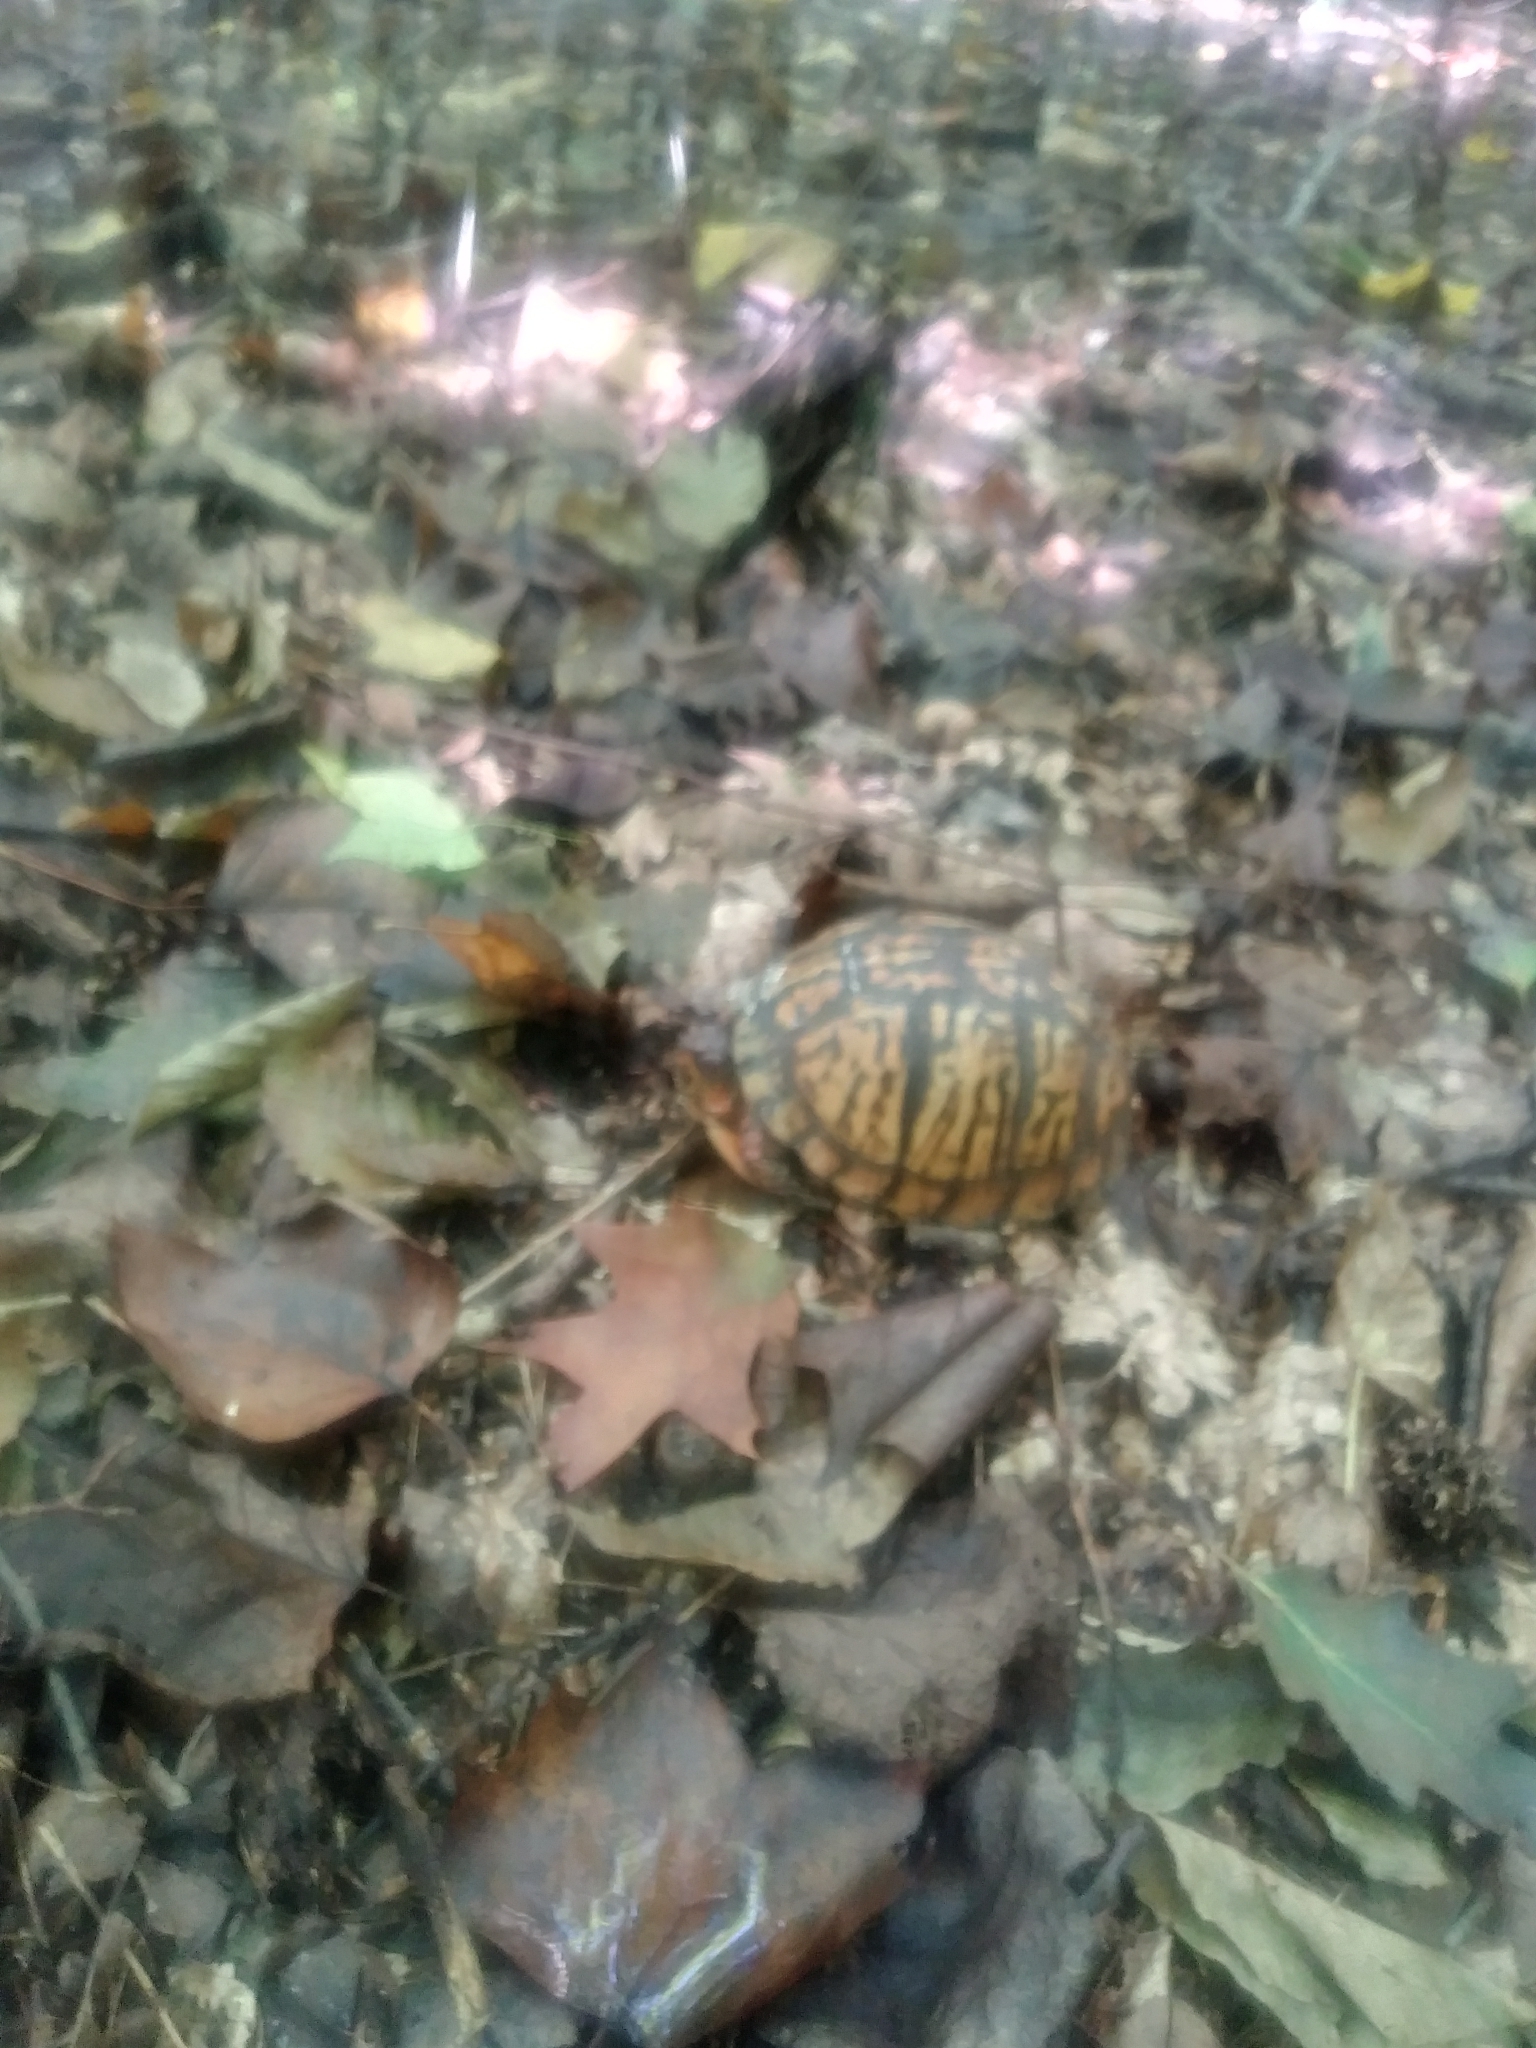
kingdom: Animalia
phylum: Chordata
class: Testudines
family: Emydidae
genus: Terrapene
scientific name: Terrapene carolina
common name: Common box turtle
